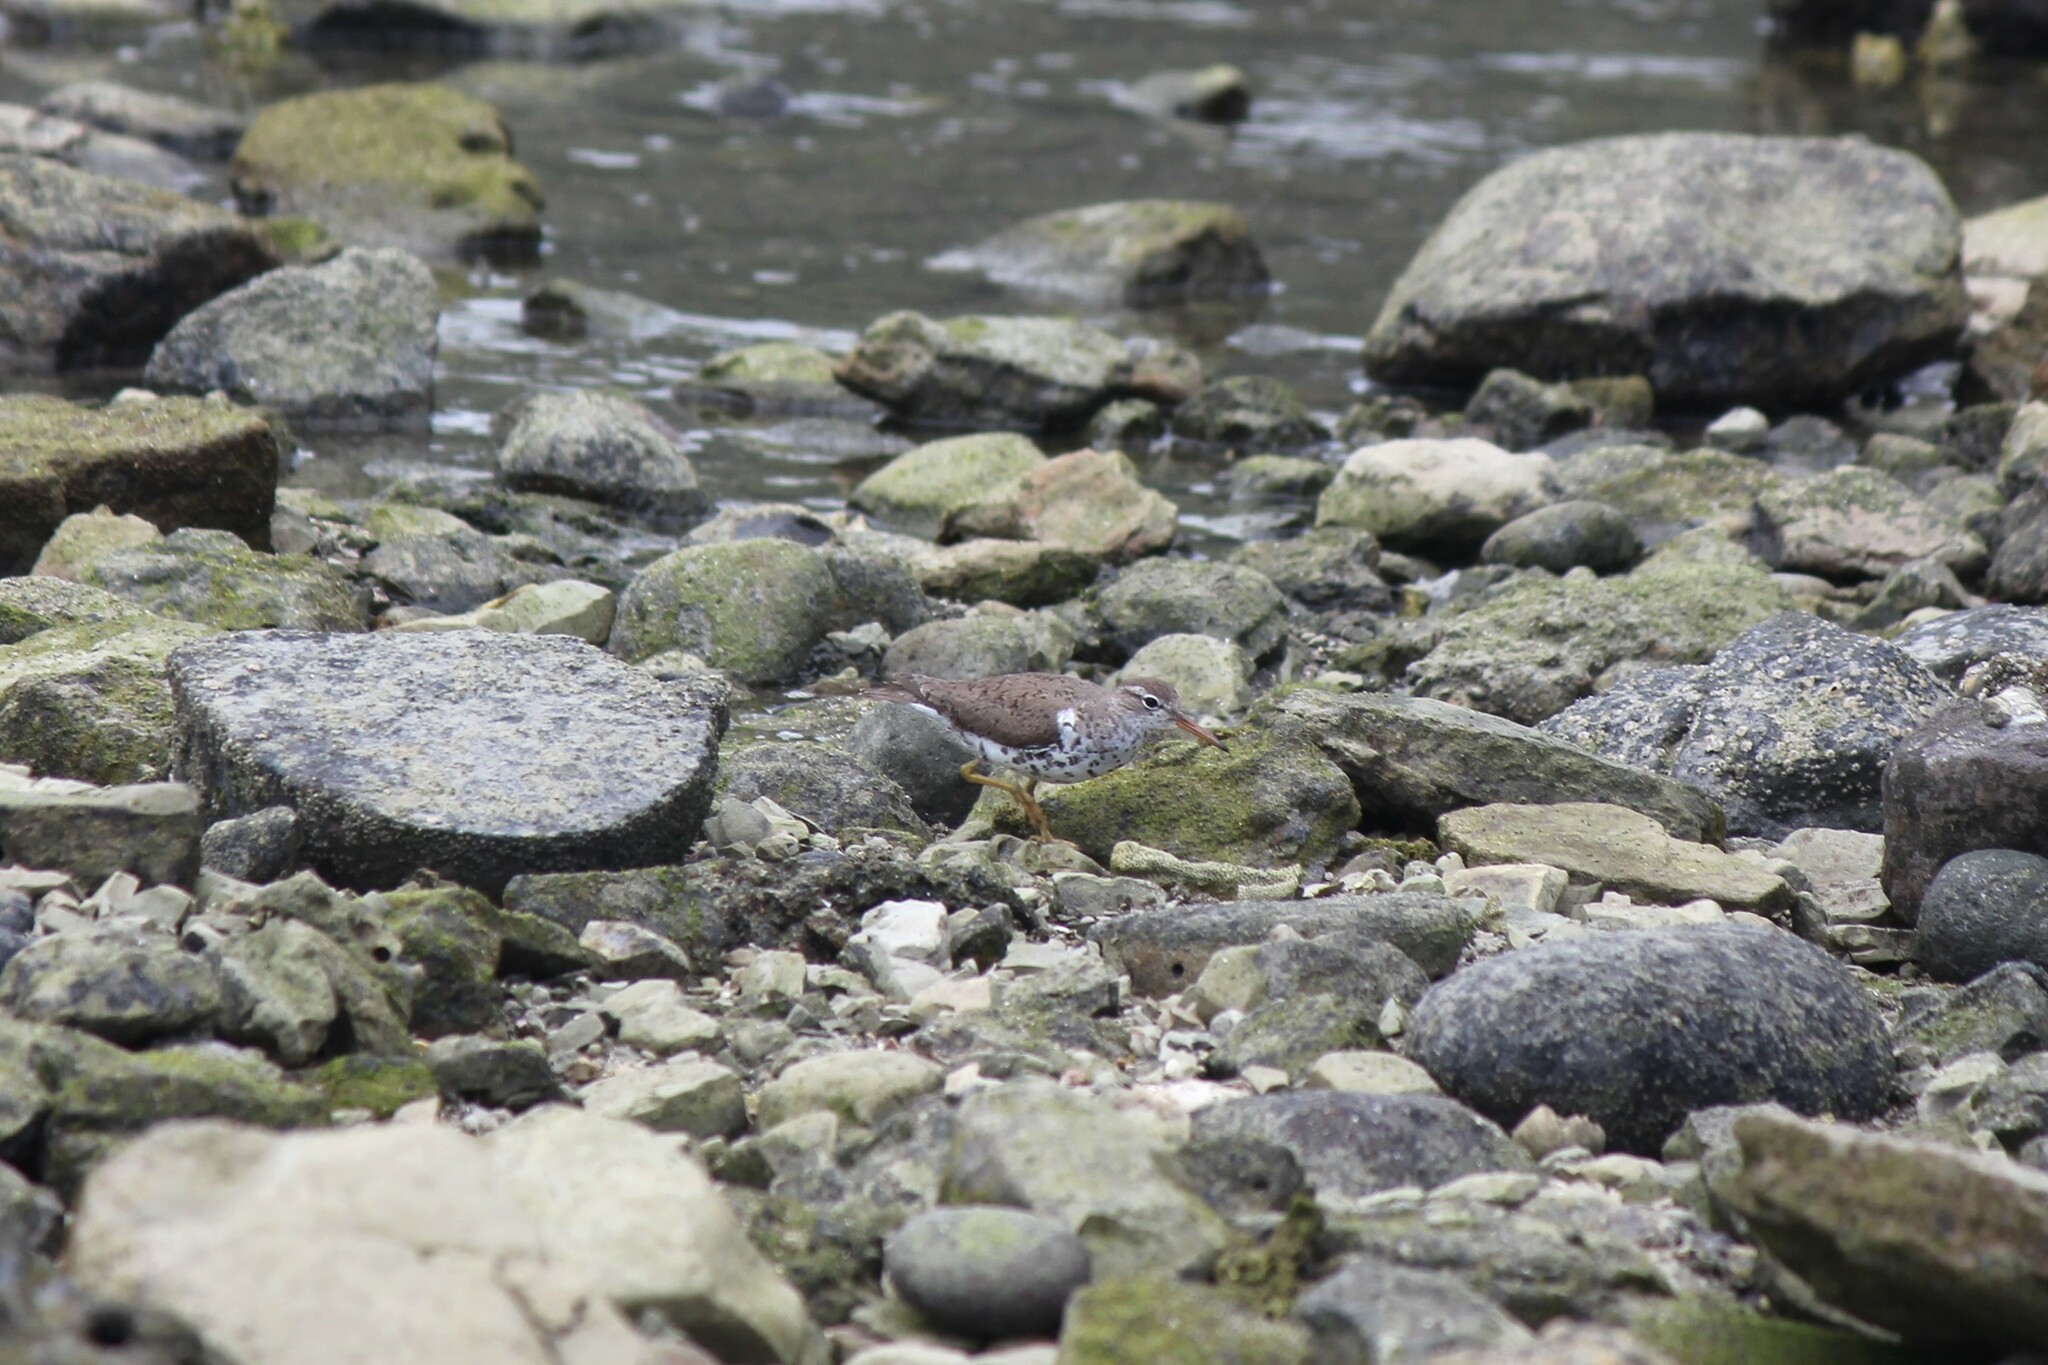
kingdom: Animalia
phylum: Chordata
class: Aves
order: Charadriiformes
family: Scolopacidae
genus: Actitis
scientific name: Actitis macularius
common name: Spotted sandpiper
